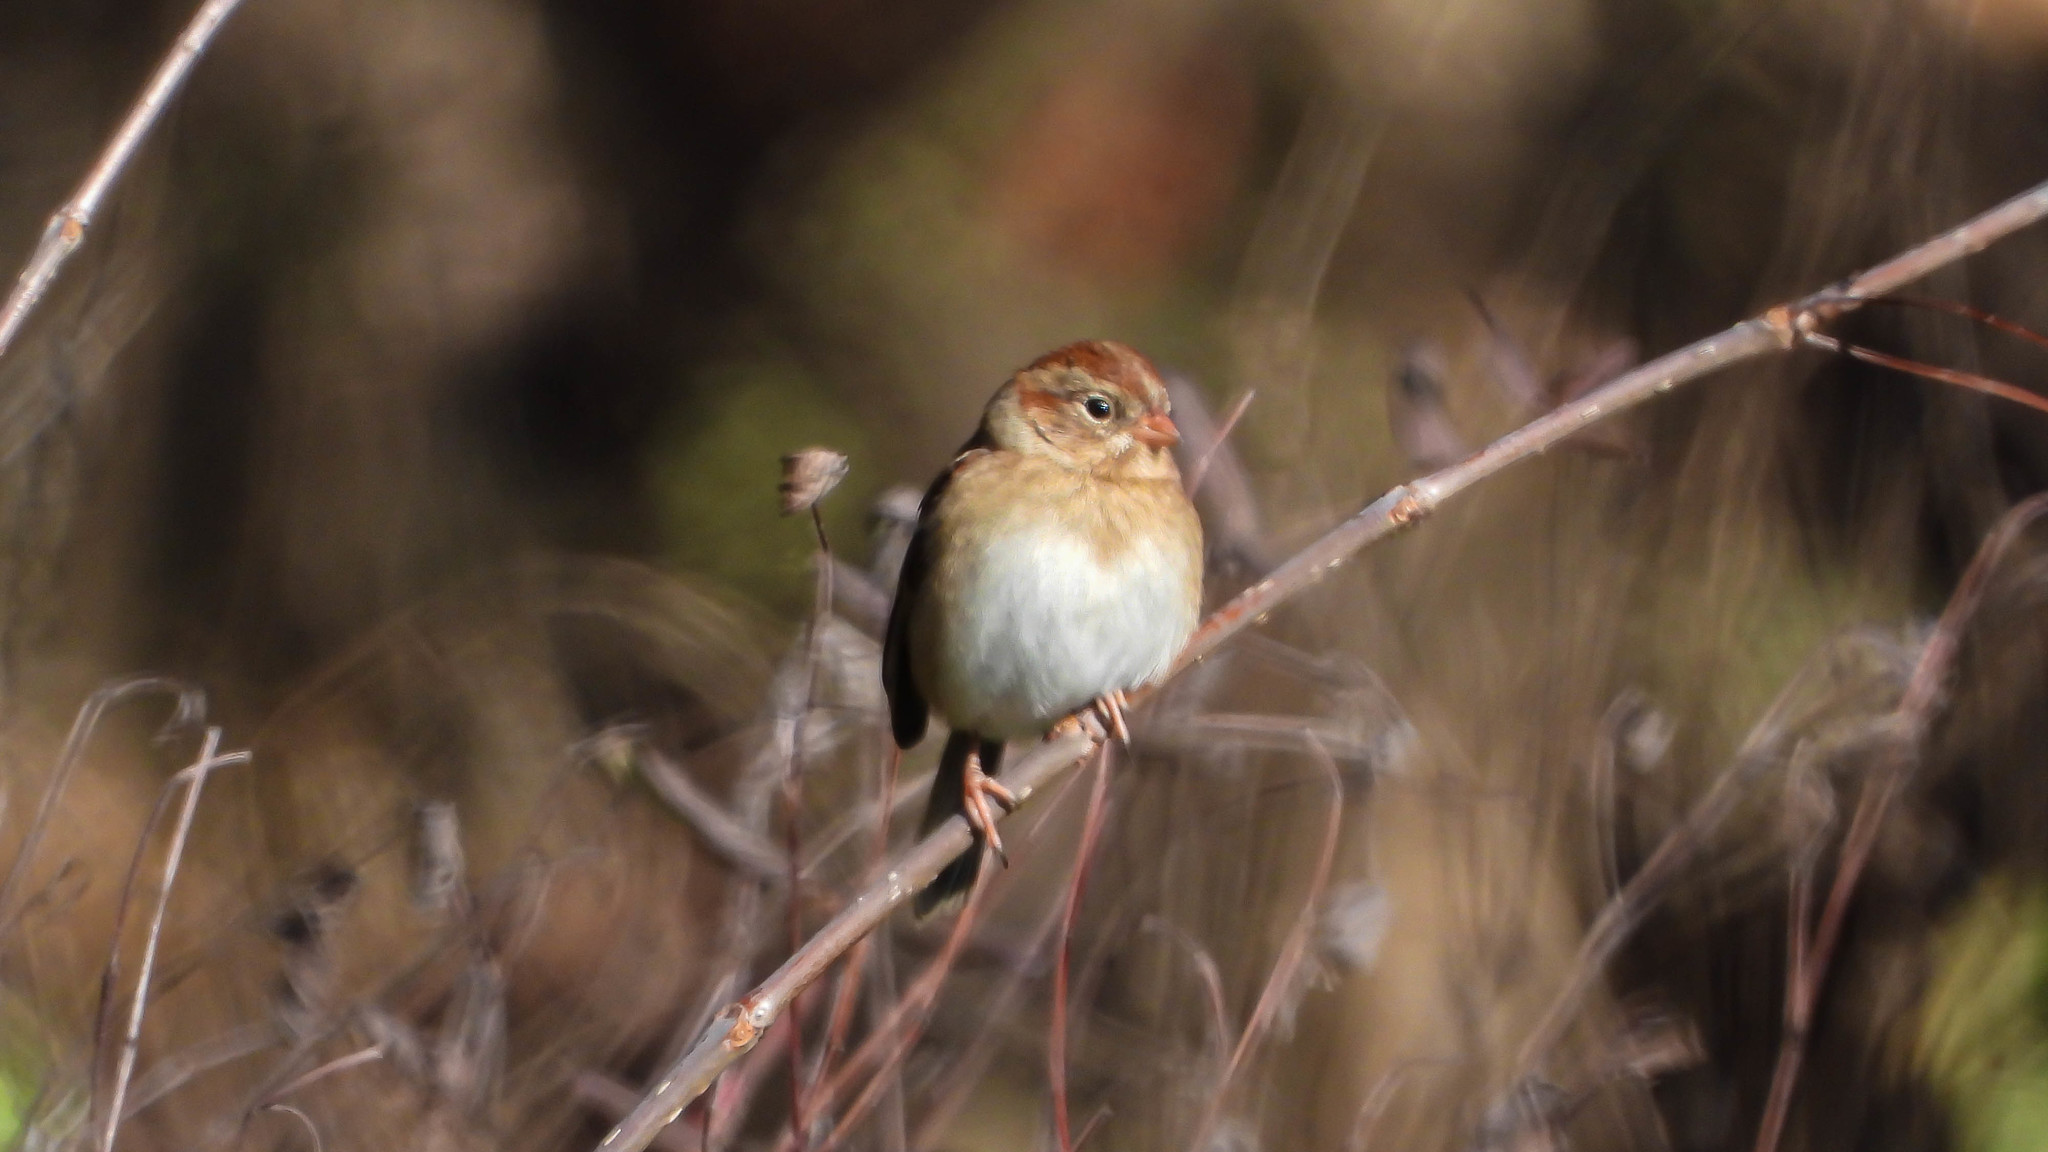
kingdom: Animalia
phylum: Chordata
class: Aves
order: Passeriformes
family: Passerellidae
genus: Spizella
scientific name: Spizella pusilla
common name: Field sparrow
